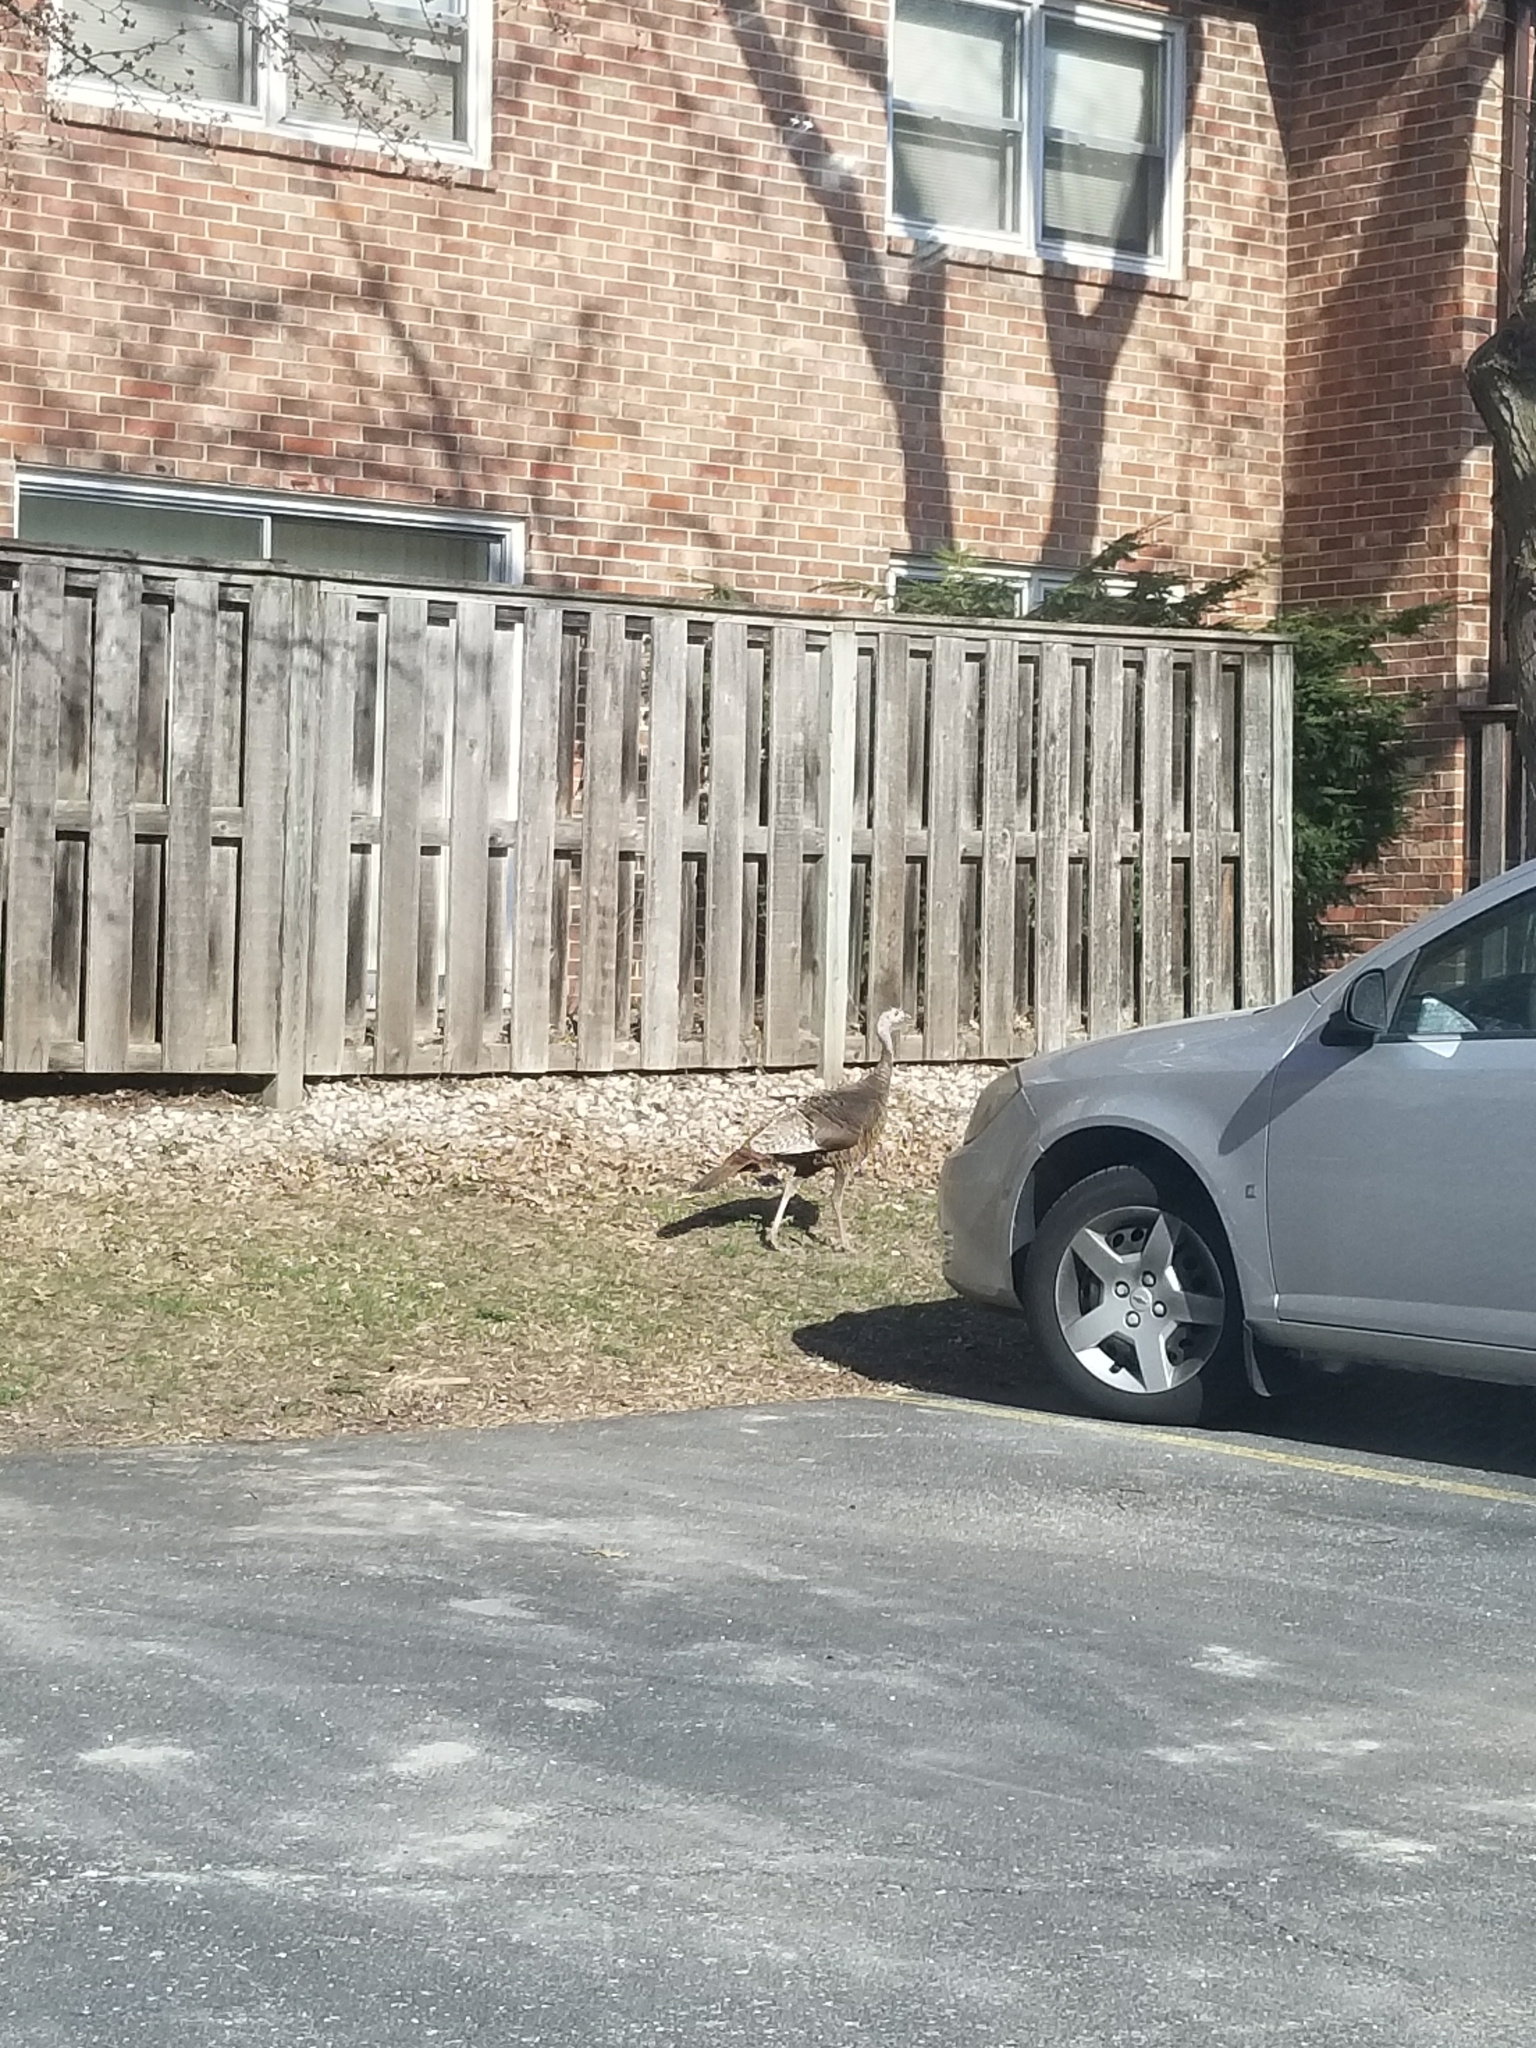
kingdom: Animalia
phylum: Chordata
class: Aves
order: Galliformes
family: Phasianidae
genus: Meleagris
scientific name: Meleagris gallopavo
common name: Wild turkey
